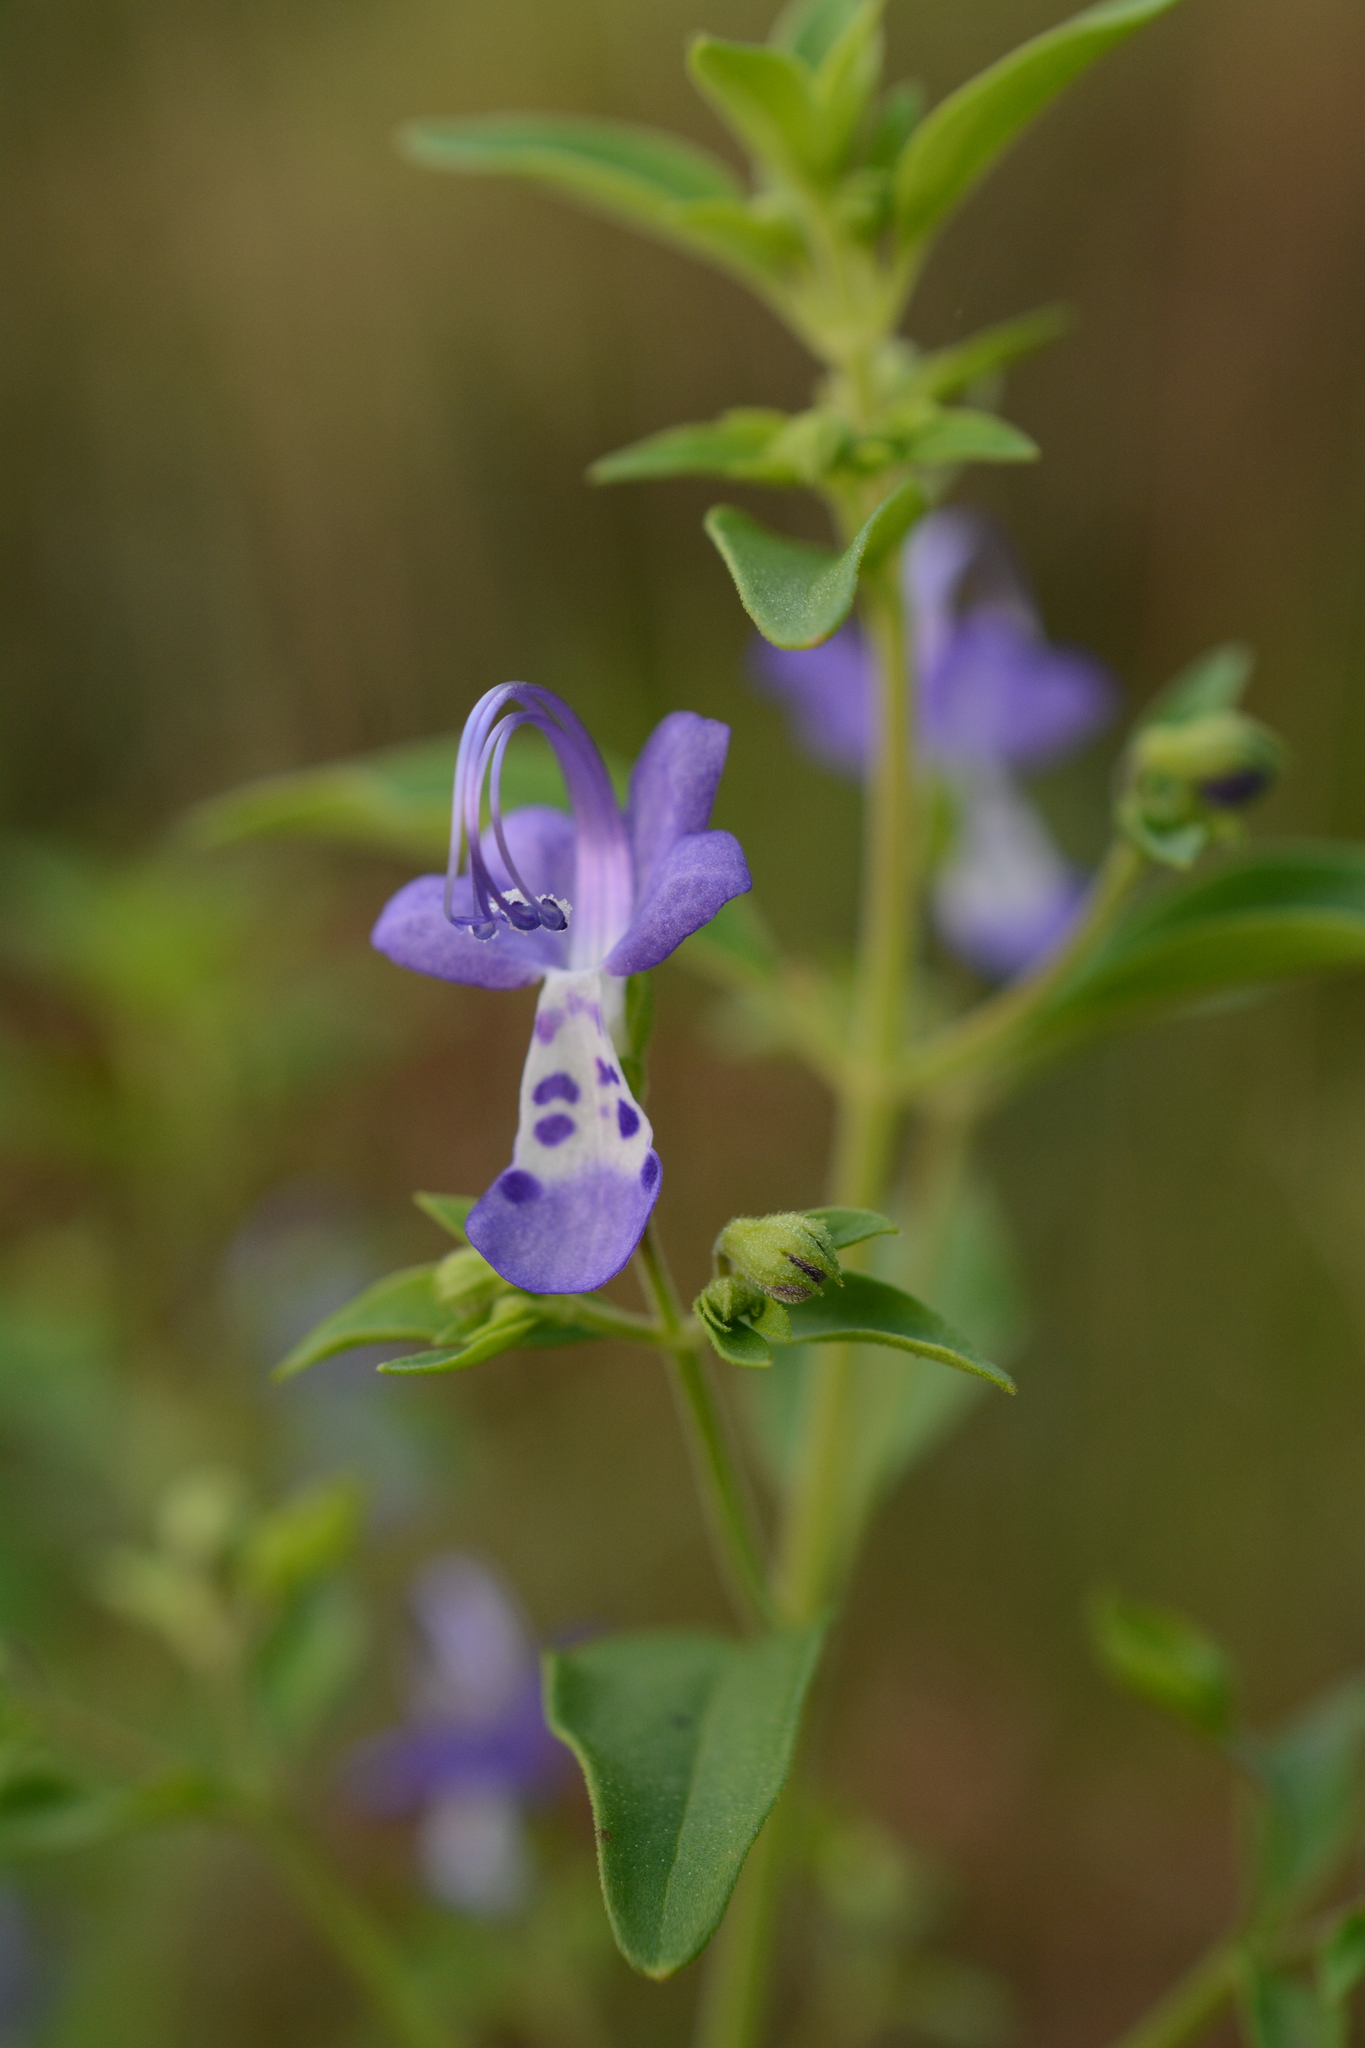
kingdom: Plantae
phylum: Tracheophyta
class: Magnoliopsida
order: Lamiales
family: Lamiaceae
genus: Trichostema
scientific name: Trichostema dichotomum
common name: Bastard pennyroyal
